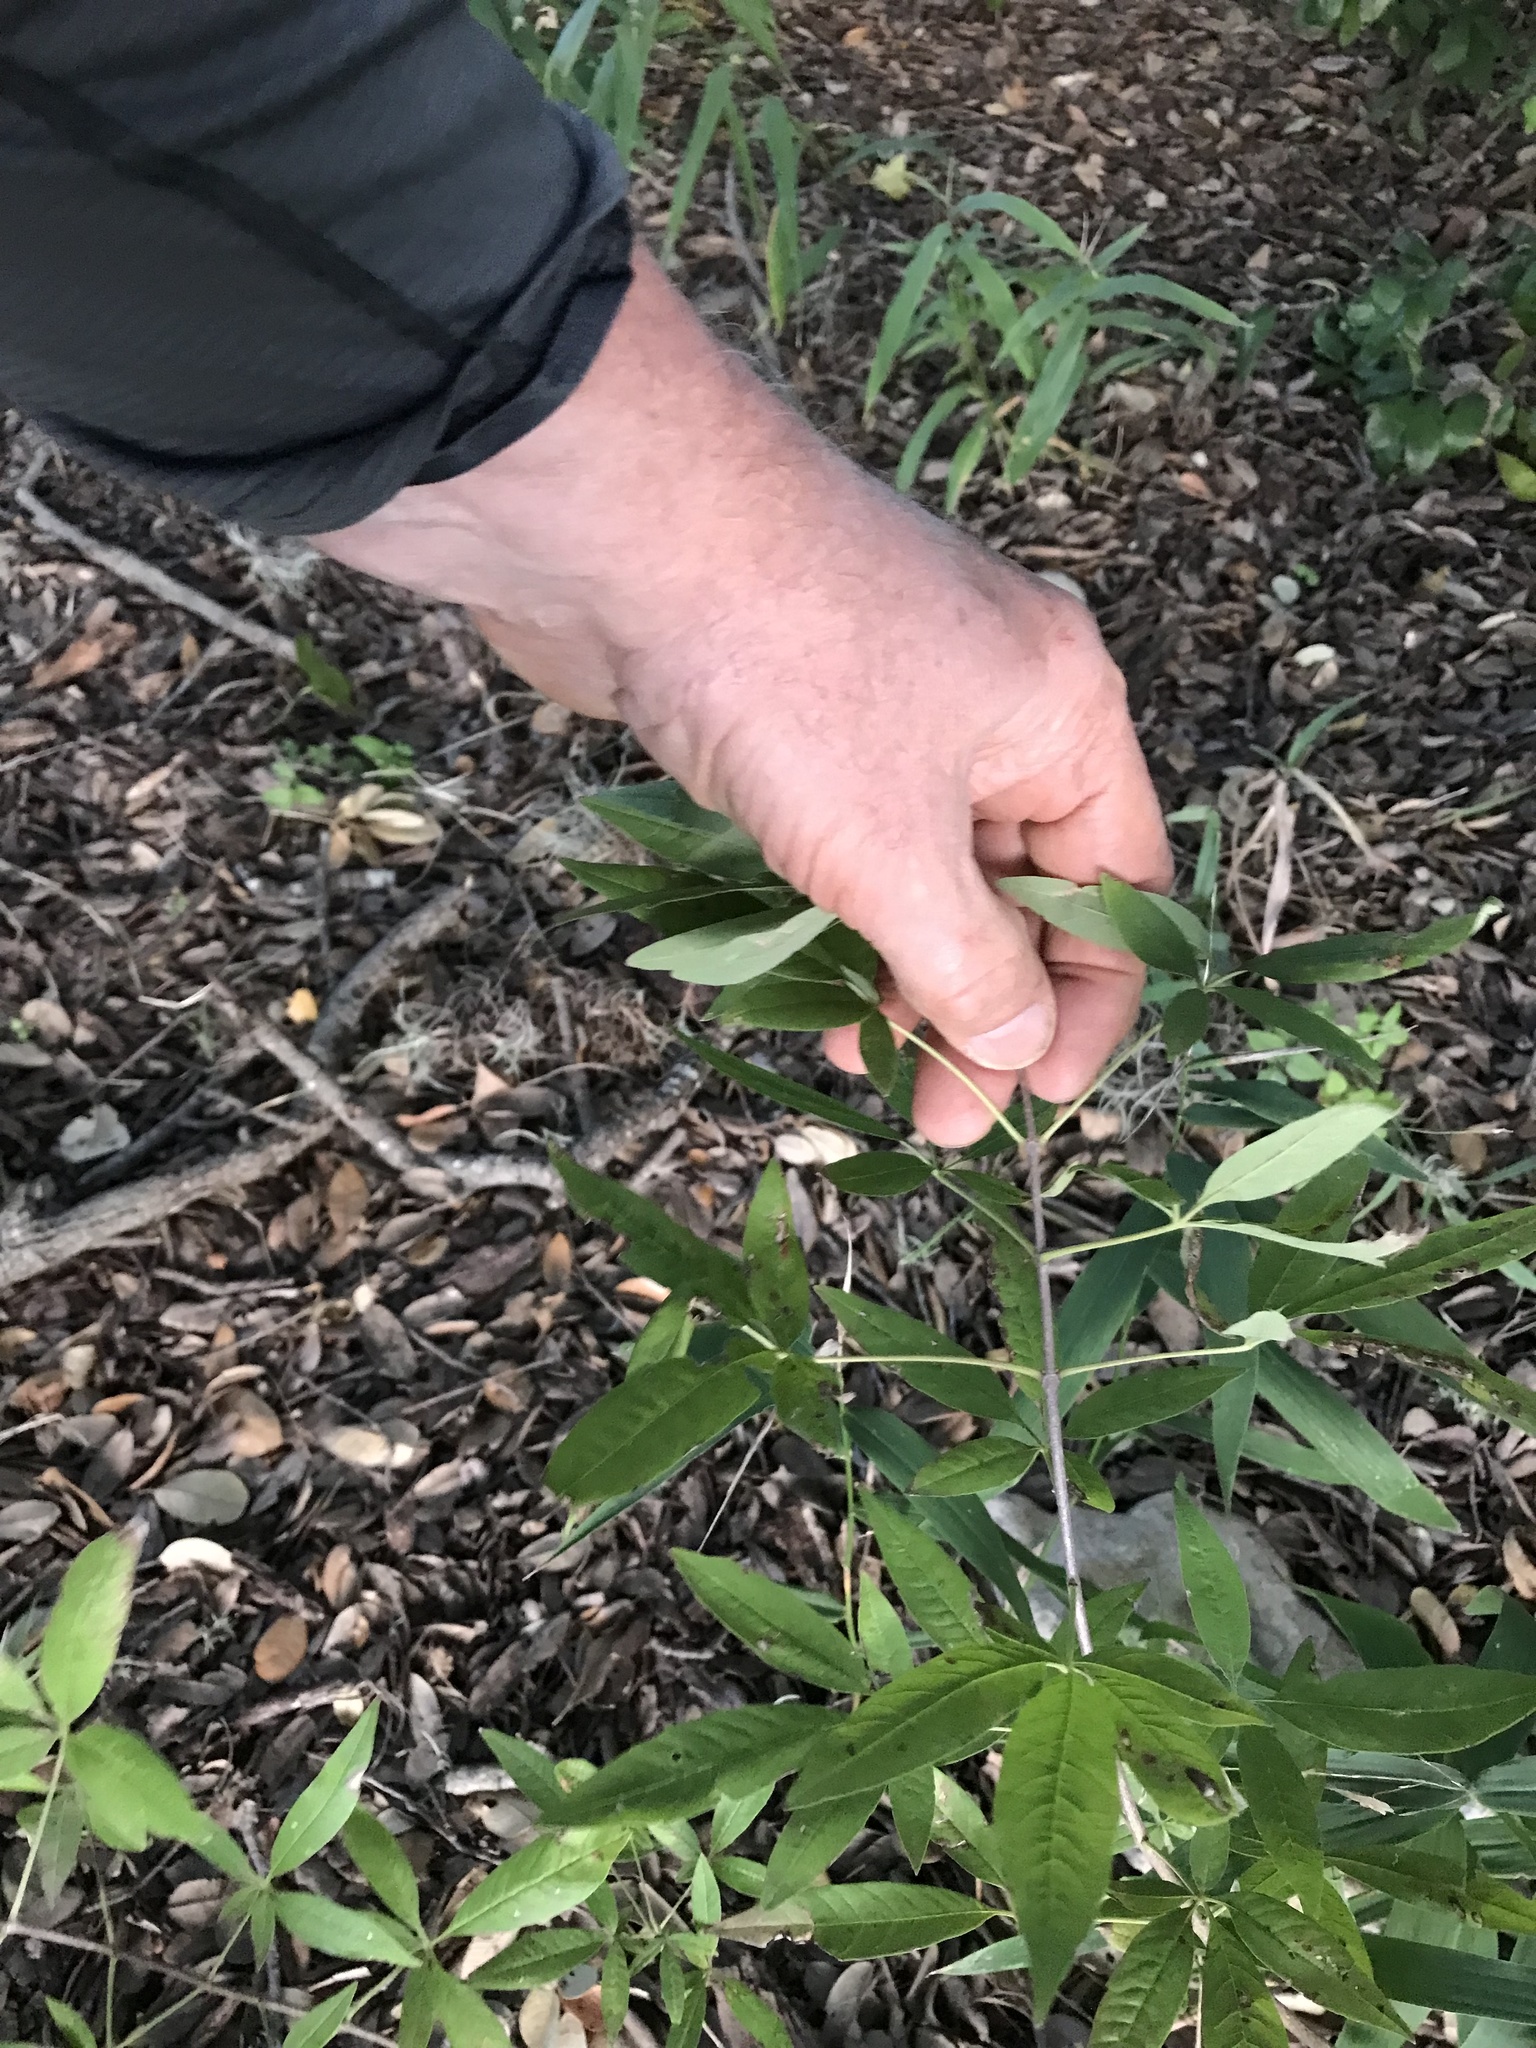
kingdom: Plantae
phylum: Tracheophyta
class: Magnoliopsida
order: Lamiales
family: Lamiaceae
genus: Vitex
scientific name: Vitex agnus-castus
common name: Chasteberry
